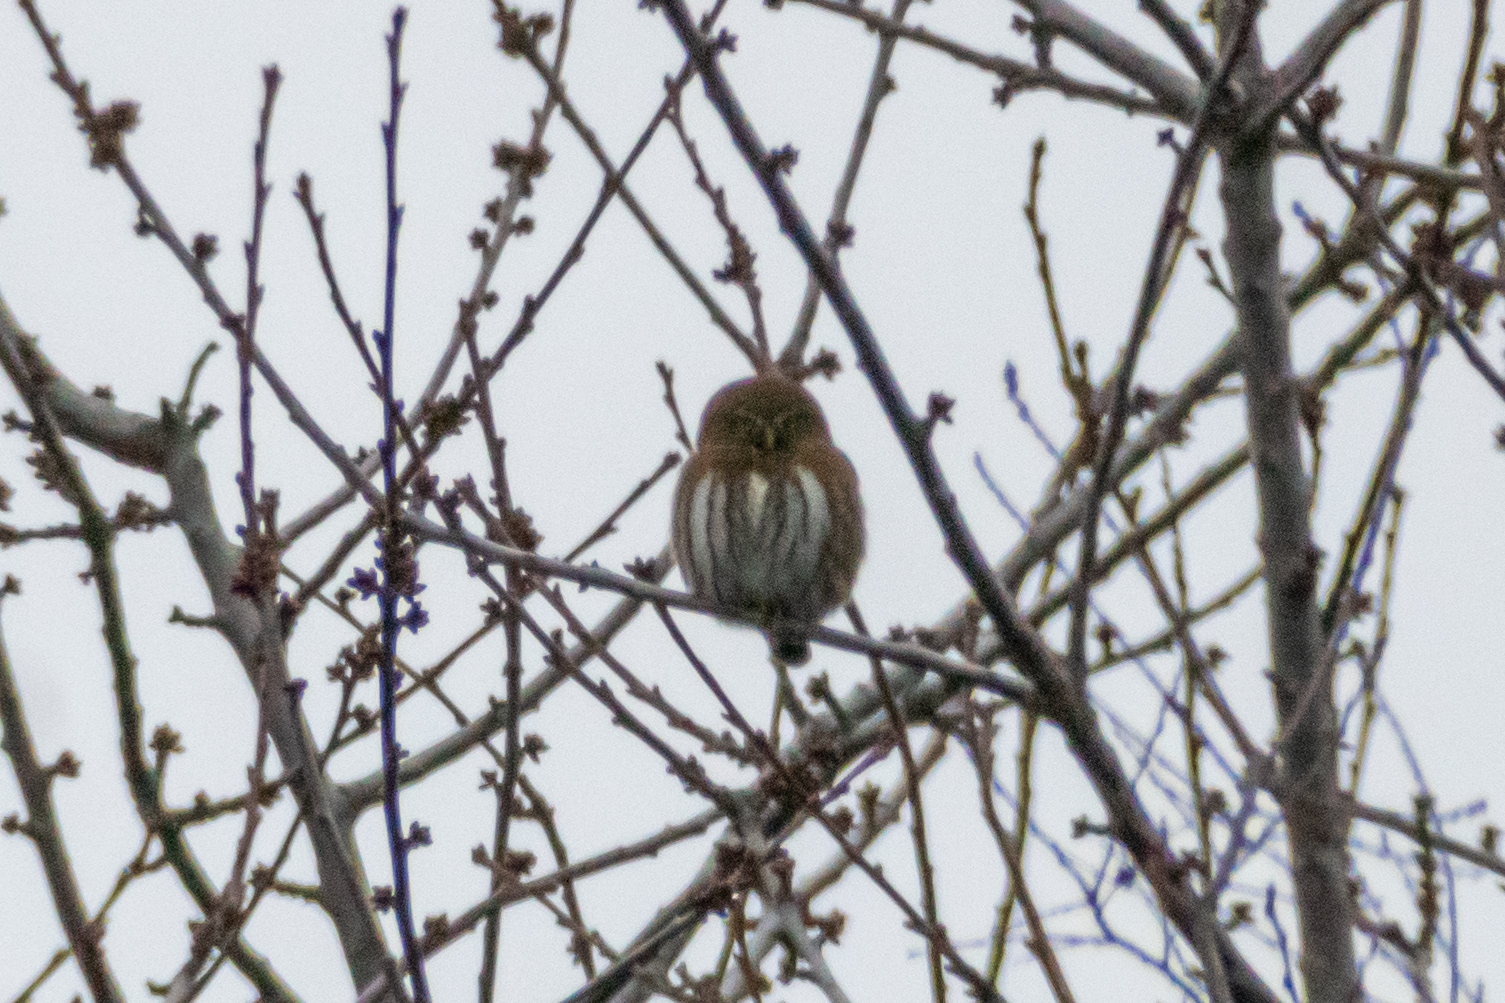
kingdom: Animalia
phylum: Chordata
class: Aves
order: Strigiformes
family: Strigidae
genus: Glaucidium
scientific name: Glaucidium nana
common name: Austral pygmy-owl
